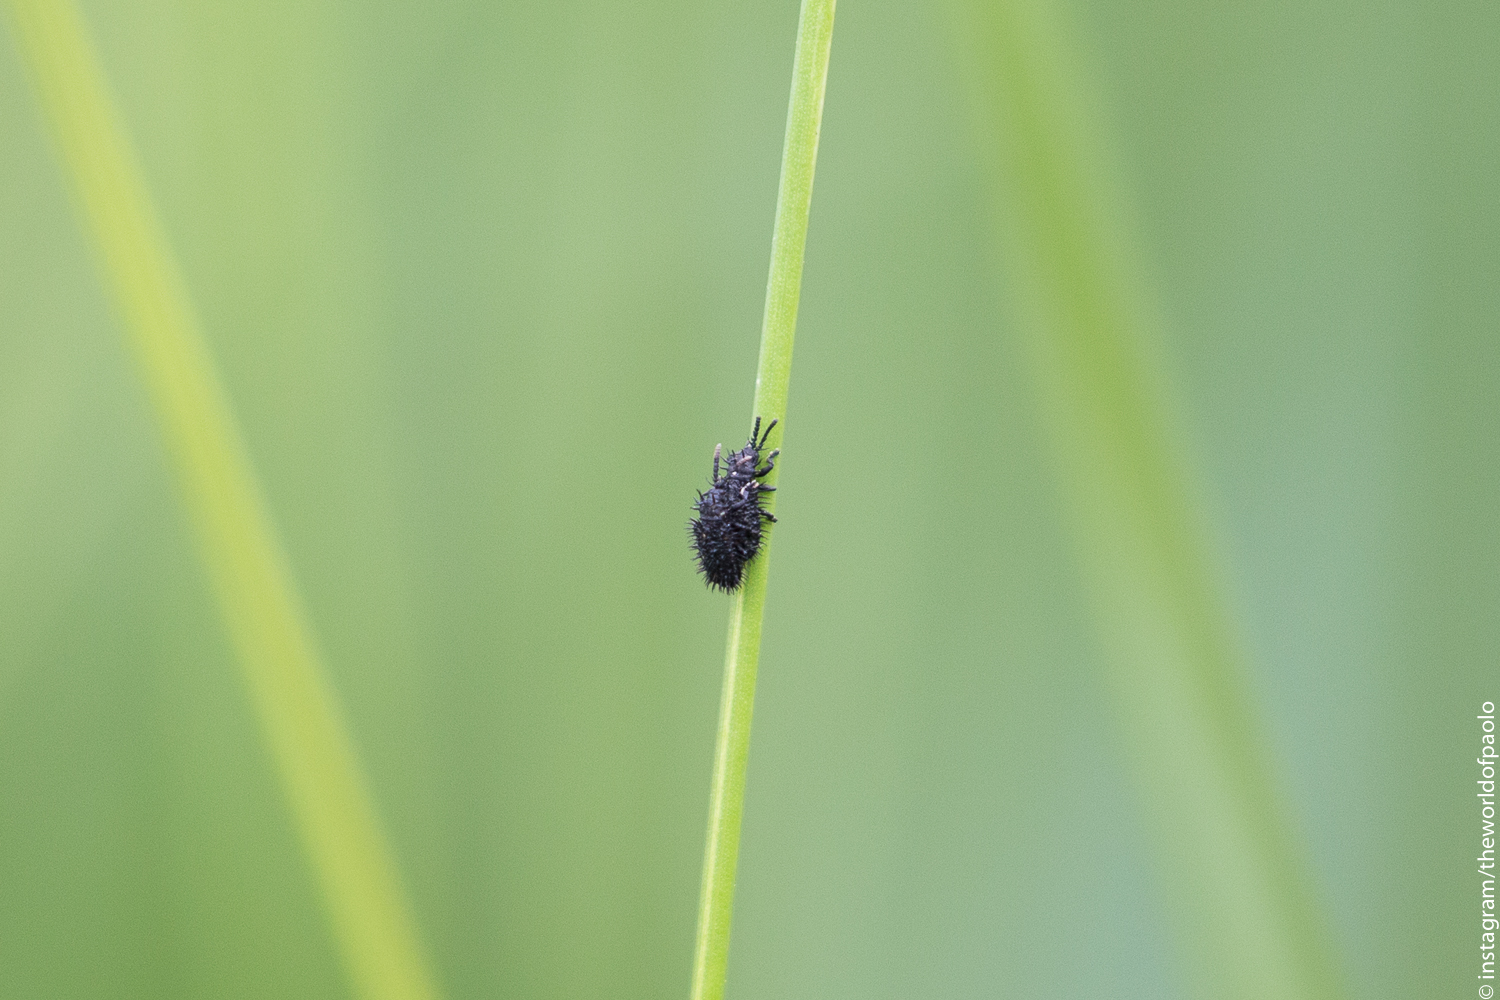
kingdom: Animalia
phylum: Arthropoda
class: Insecta
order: Coleoptera
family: Chrysomelidae
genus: Hispa
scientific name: Hispa atra
